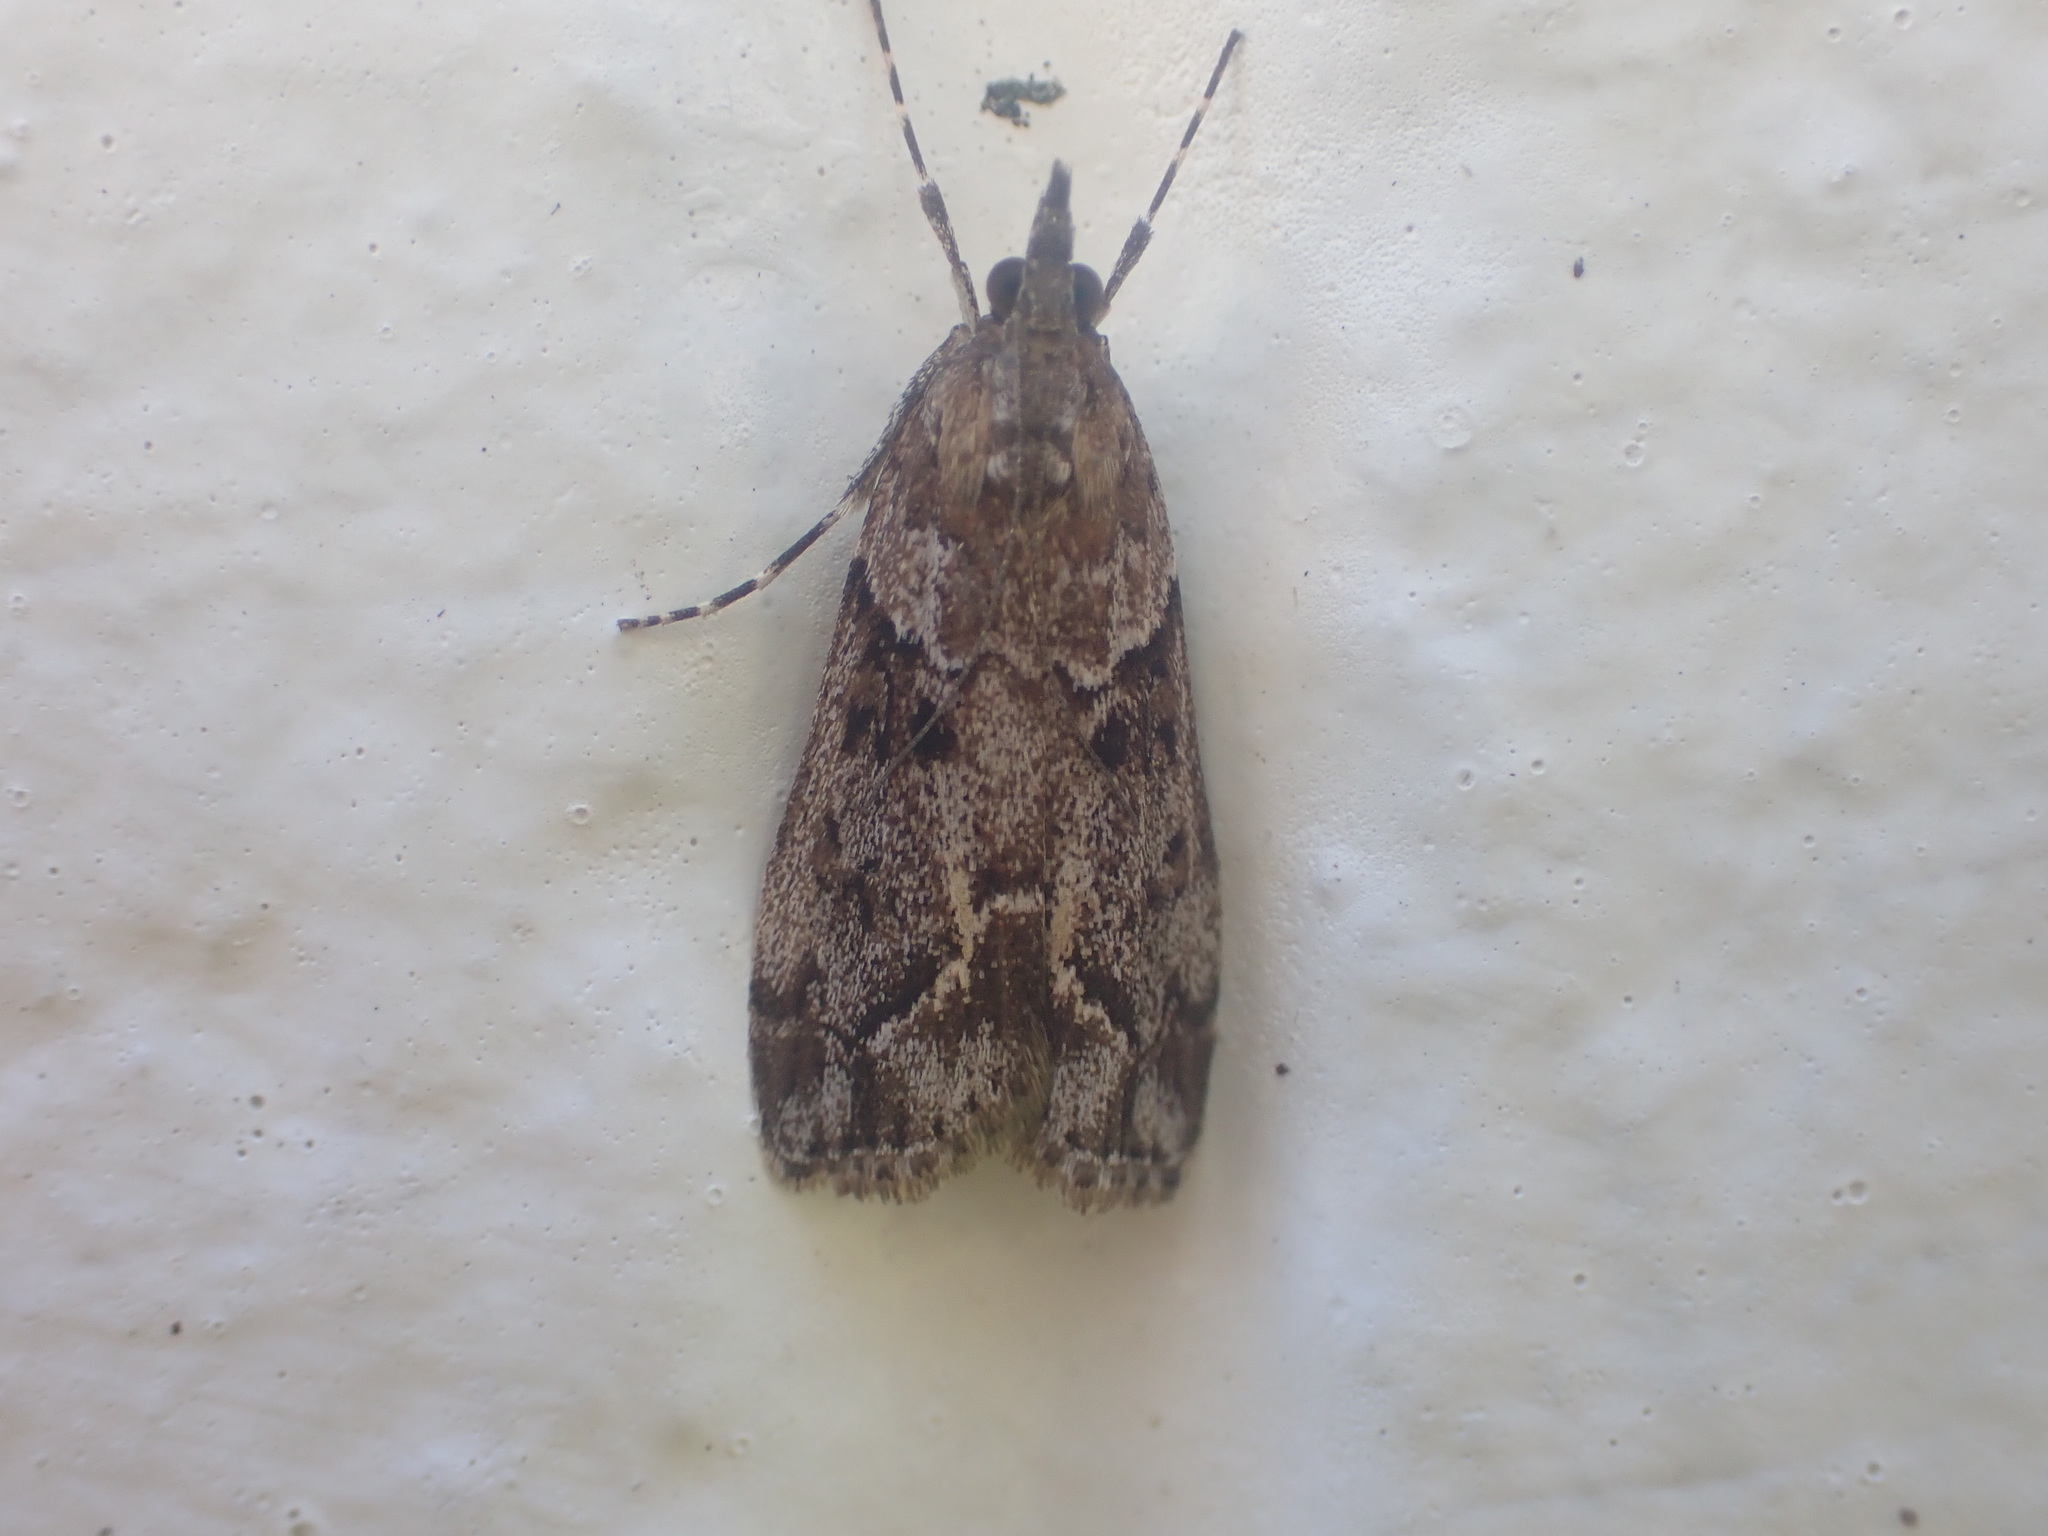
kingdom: Animalia
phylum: Arthropoda
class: Insecta
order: Lepidoptera
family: Crambidae
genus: Eudonia
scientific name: Eudonia submarginalis
